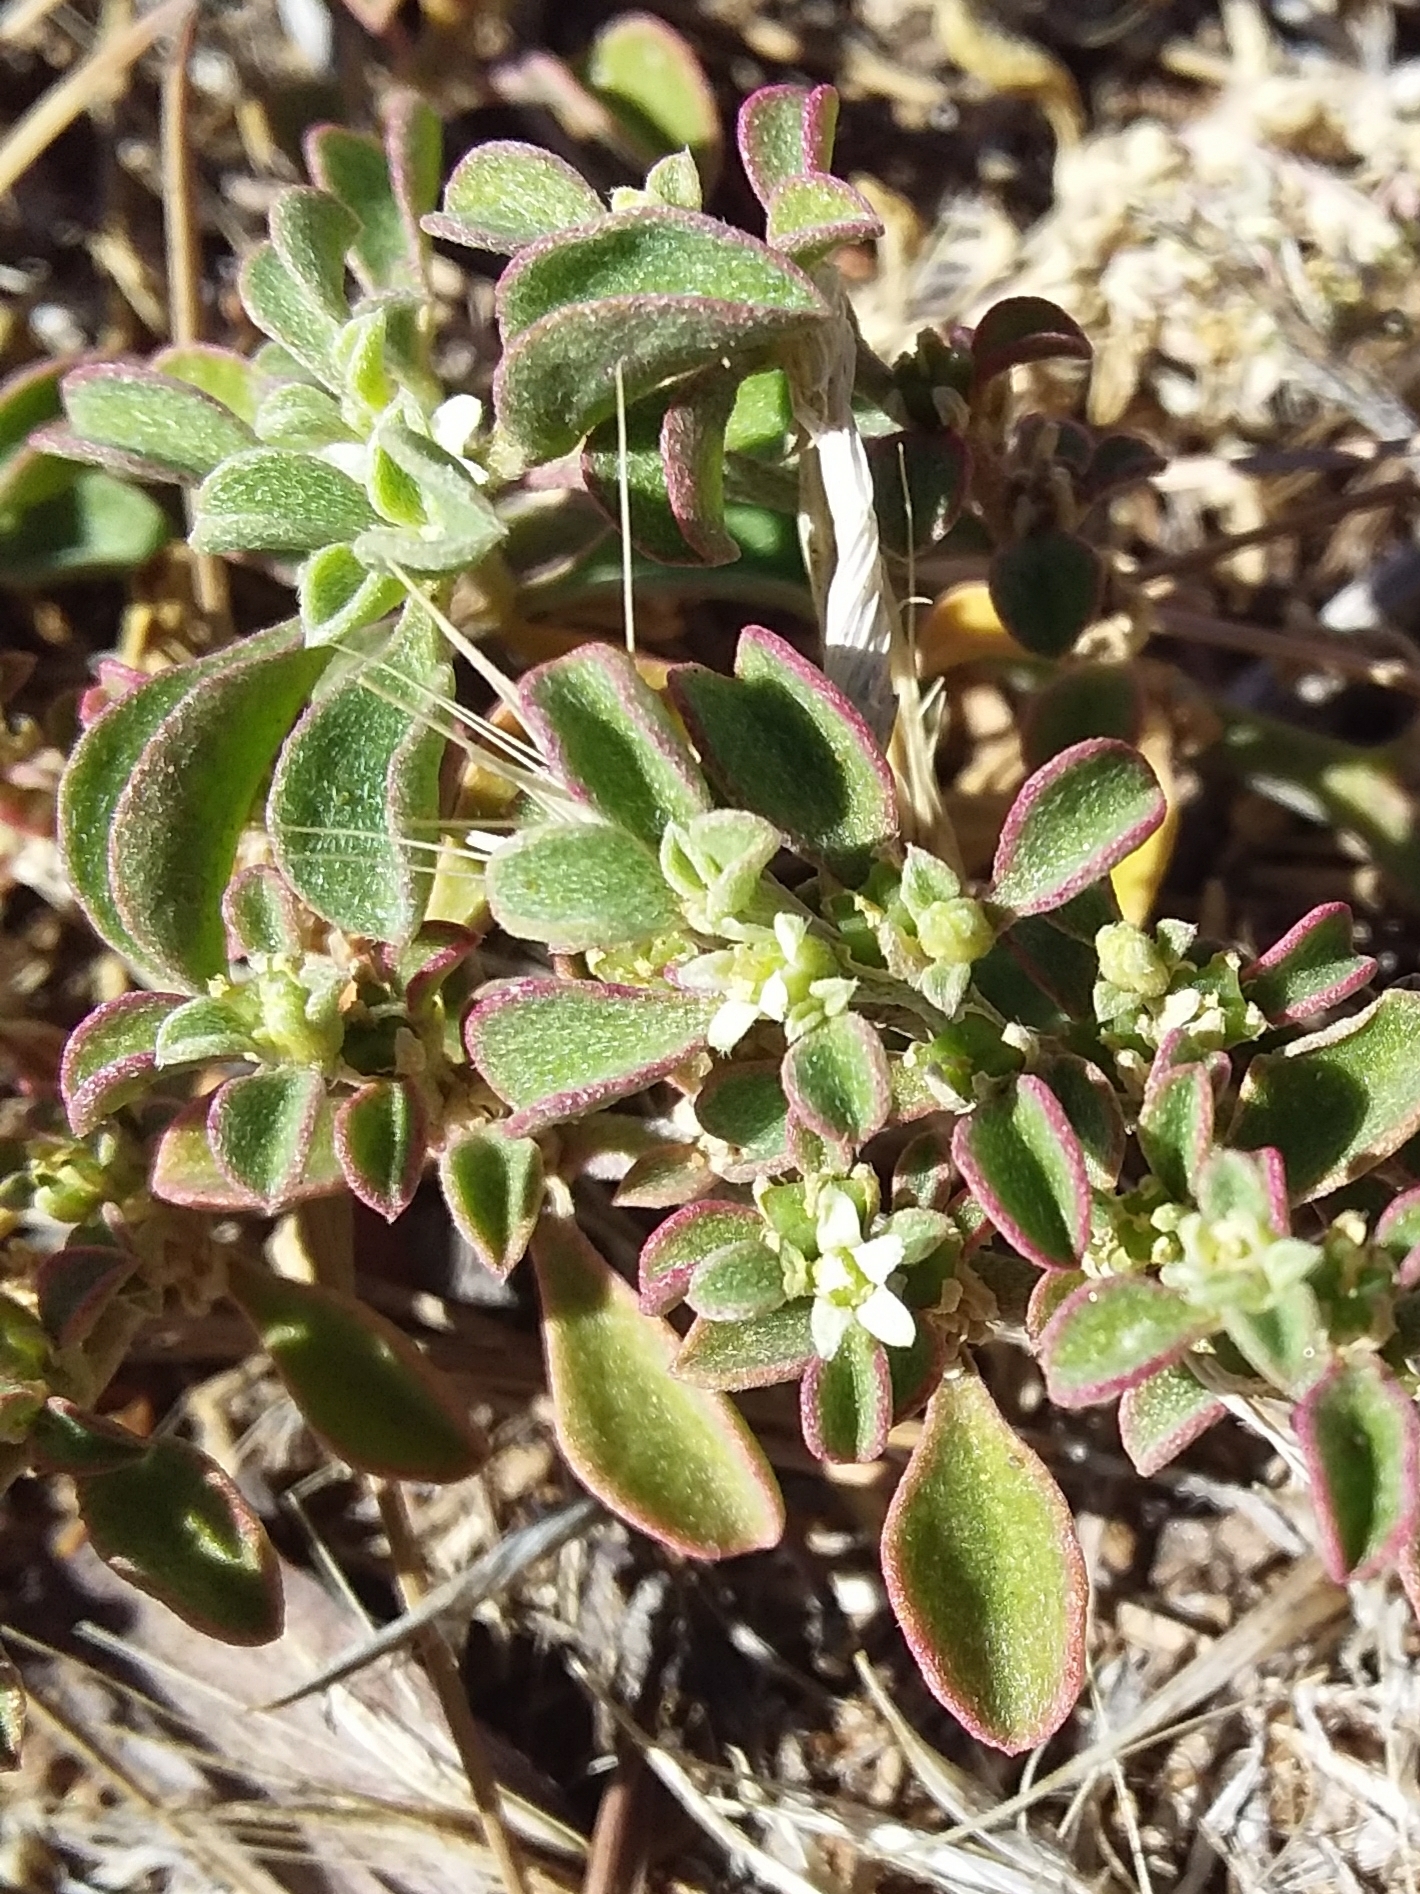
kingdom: Plantae
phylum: Tracheophyta
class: Magnoliopsida
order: Caryophyllales
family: Aizoaceae
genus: Aizoon
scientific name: Aizoon pubescens
